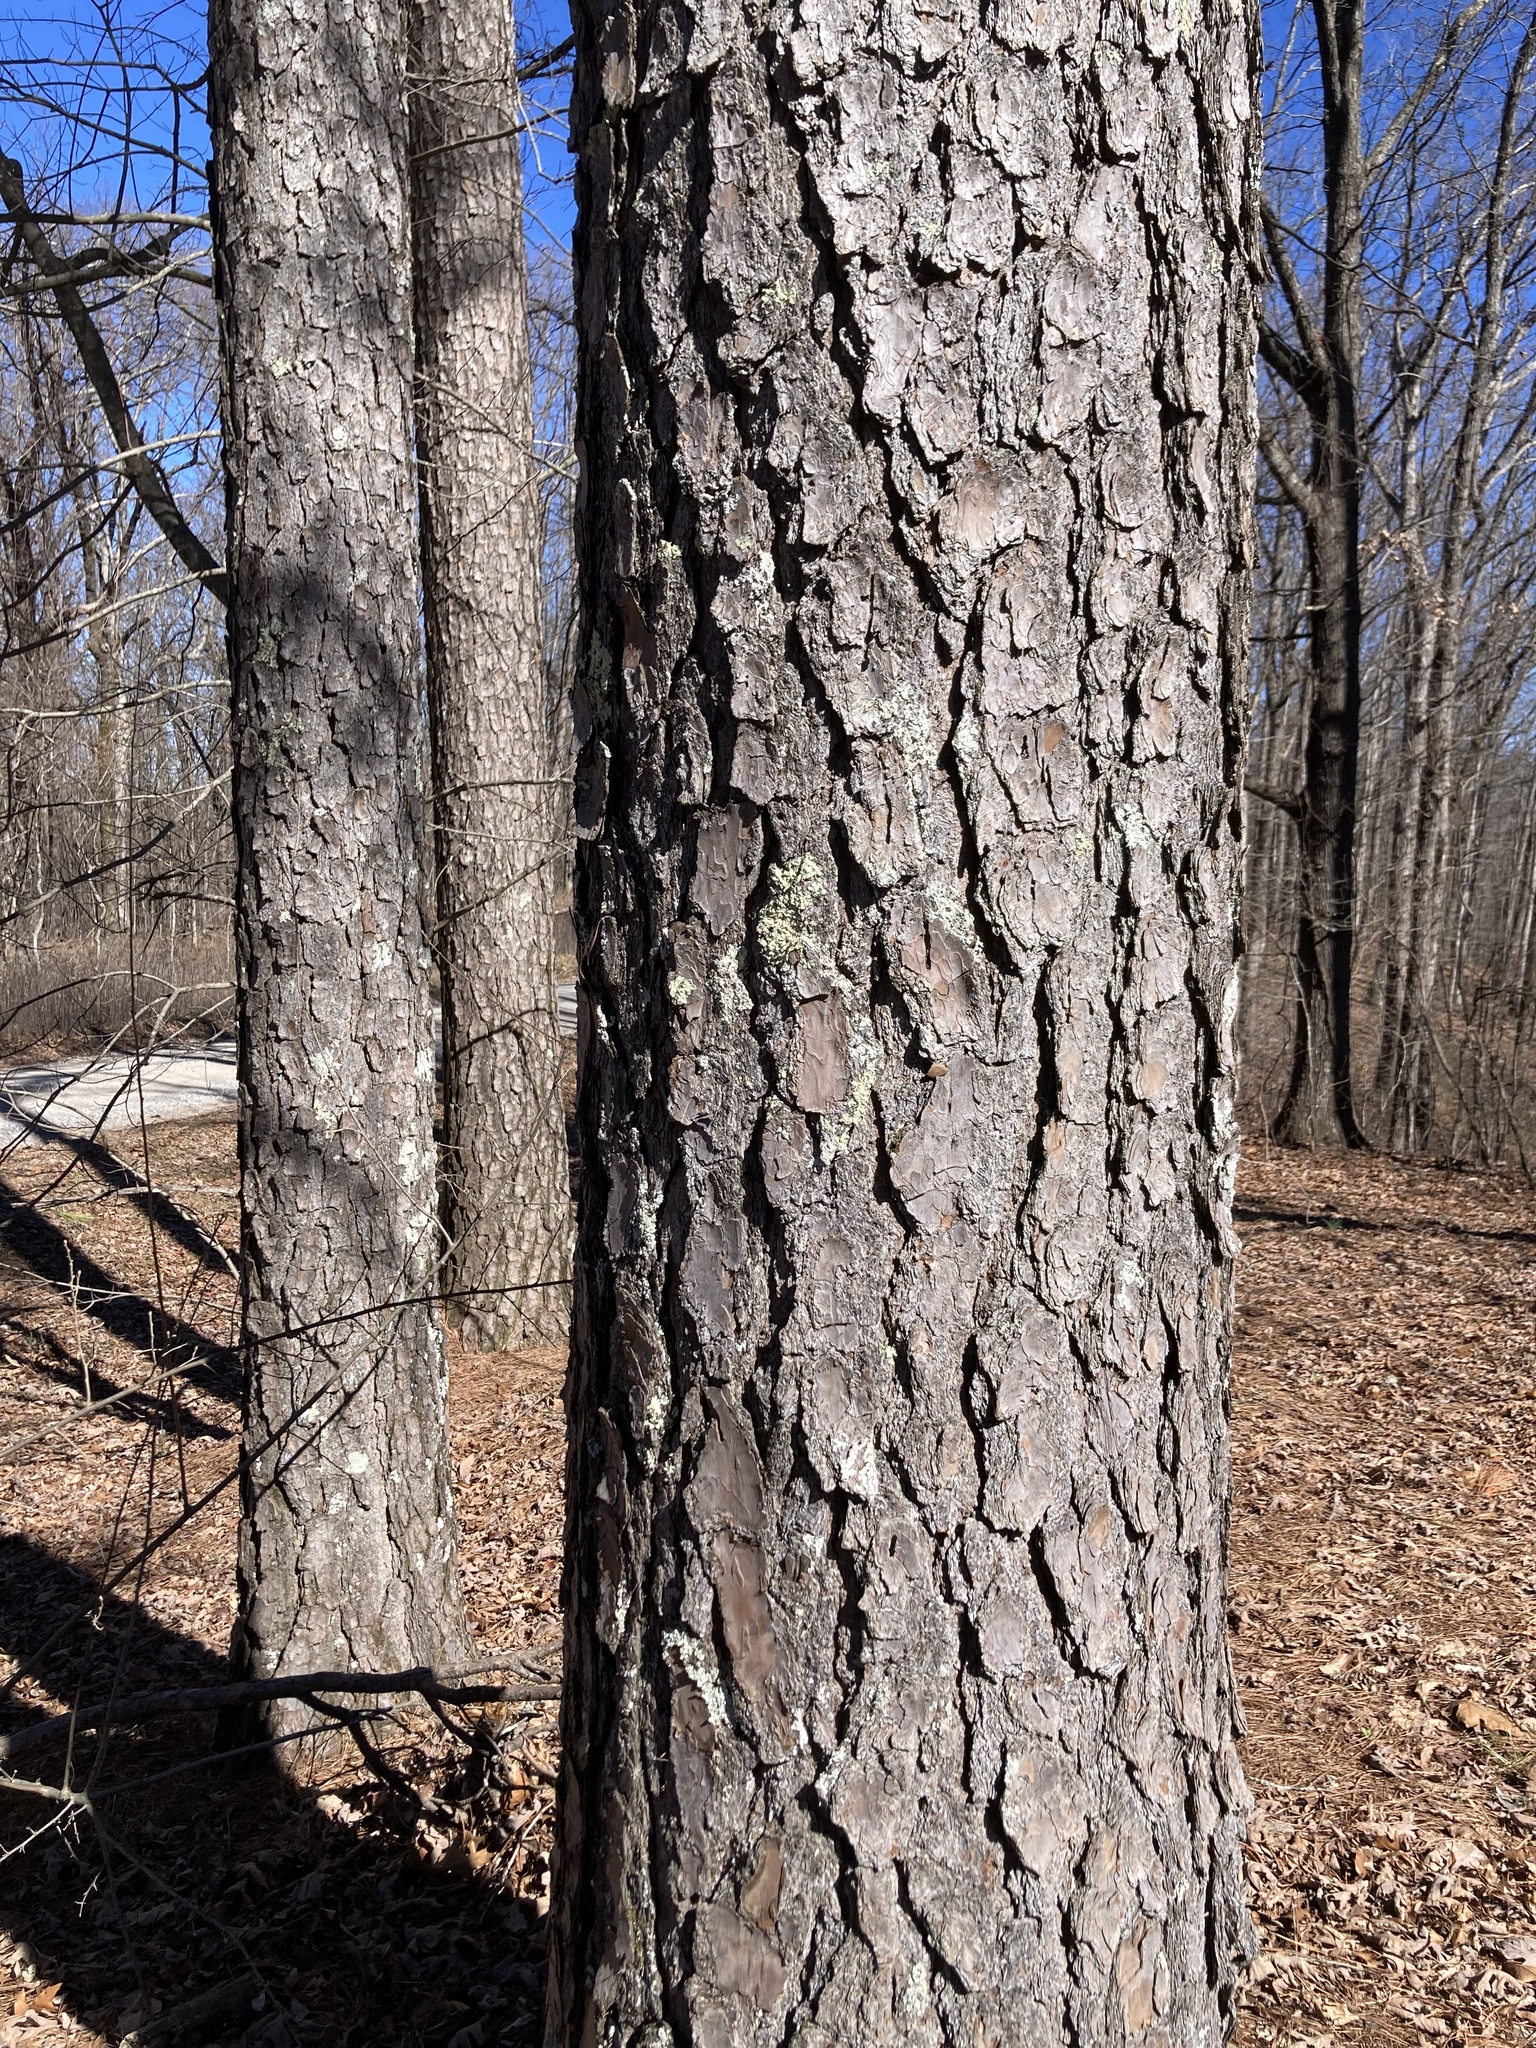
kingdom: Plantae
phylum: Tracheophyta
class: Pinopsida
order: Pinales
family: Pinaceae
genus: Pinus
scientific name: Pinus taeda
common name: Loblolly pine
